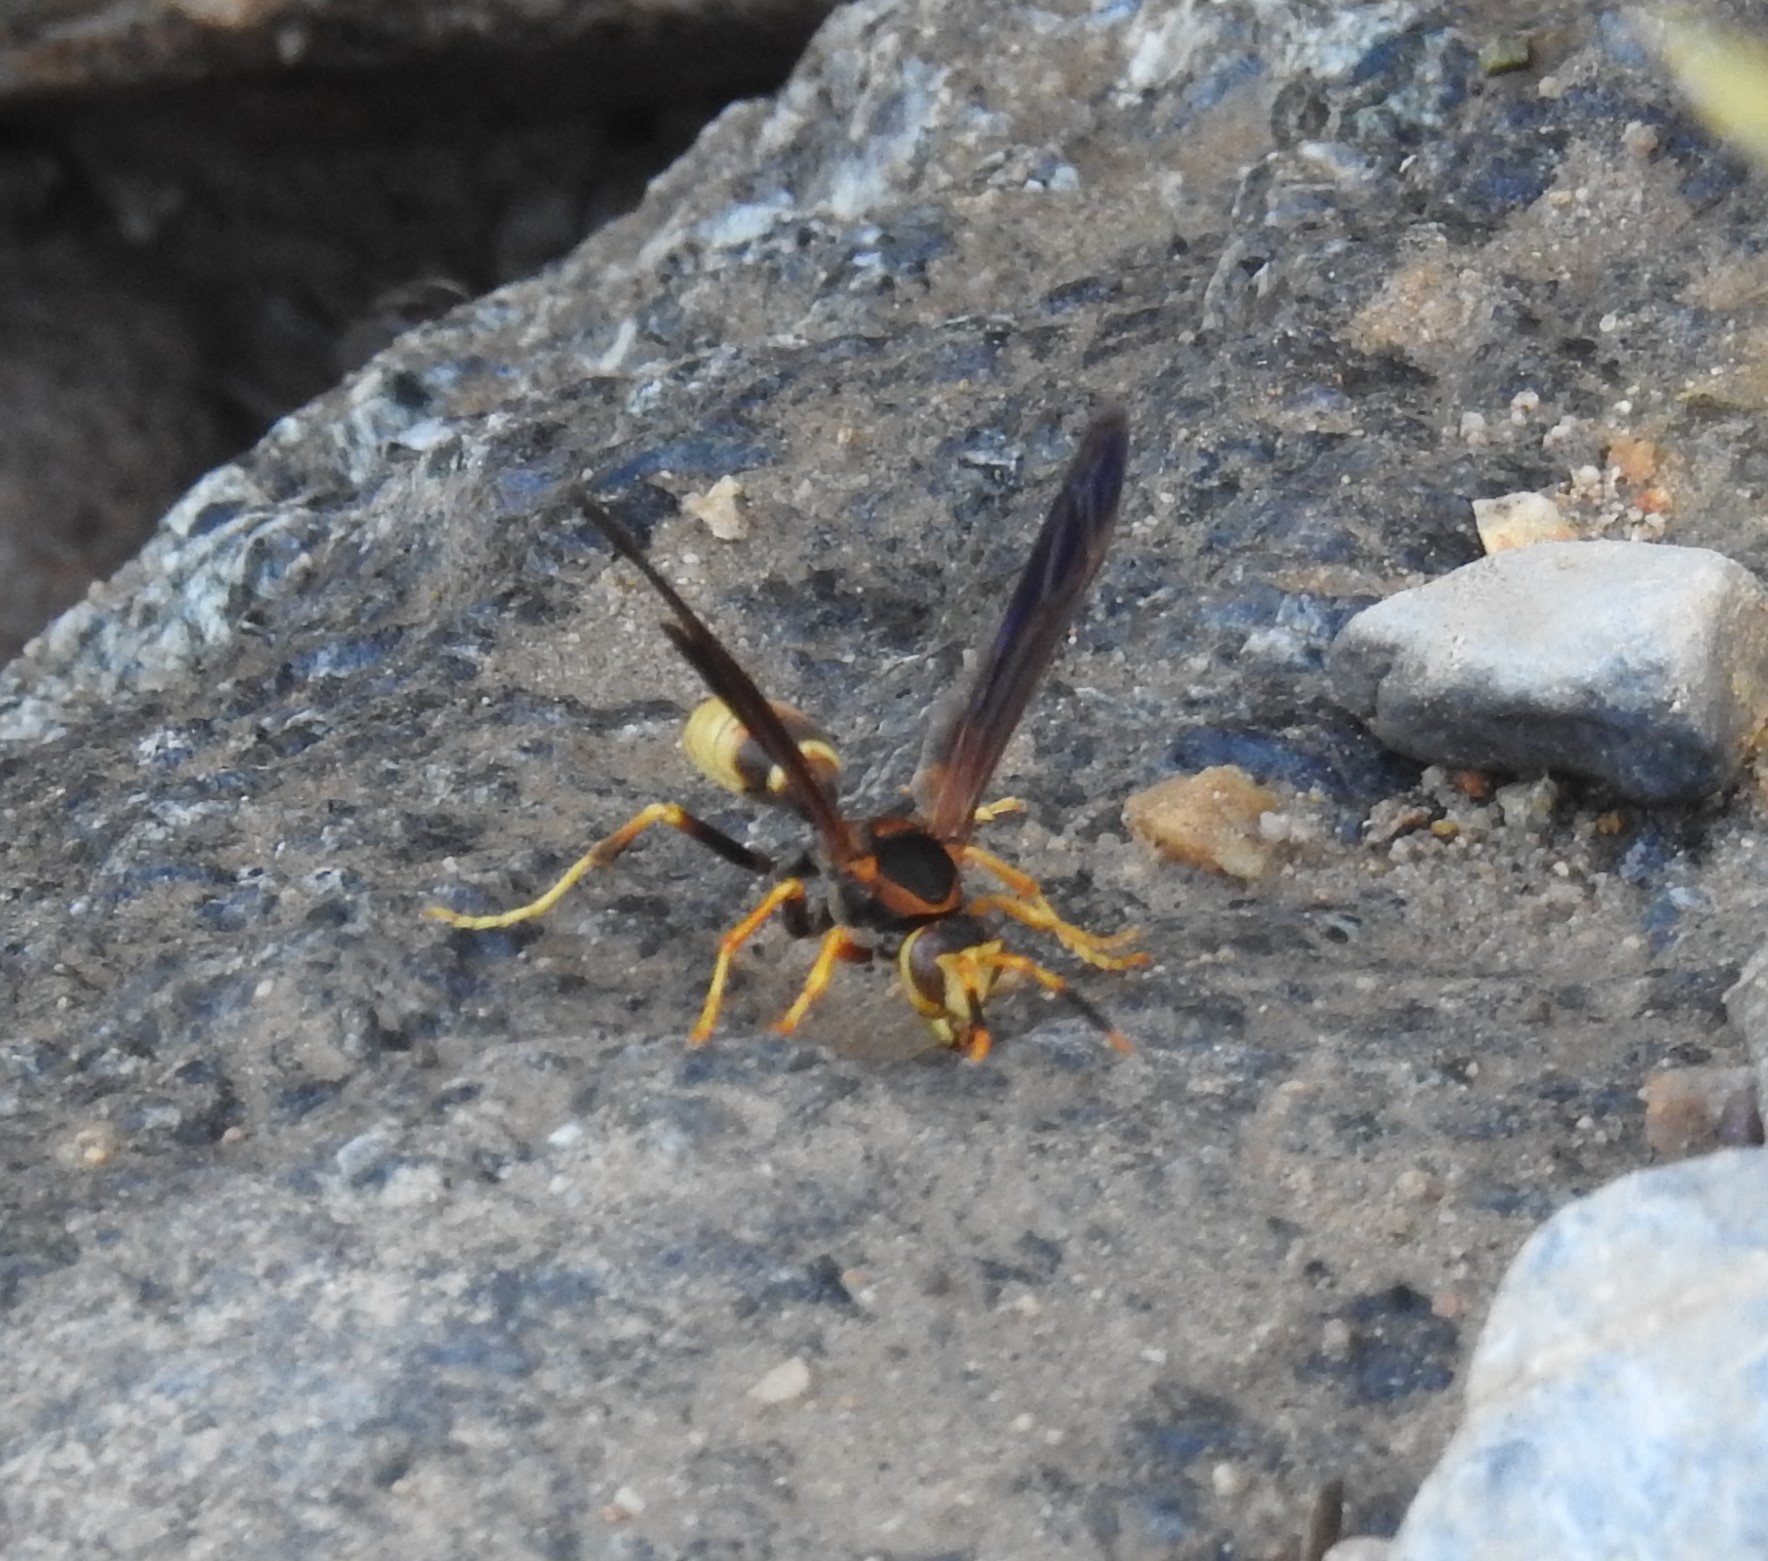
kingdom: Animalia
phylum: Arthropoda
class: Insecta
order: Hymenoptera
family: Eumenidae
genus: Polistes
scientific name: Polistes comanchus
